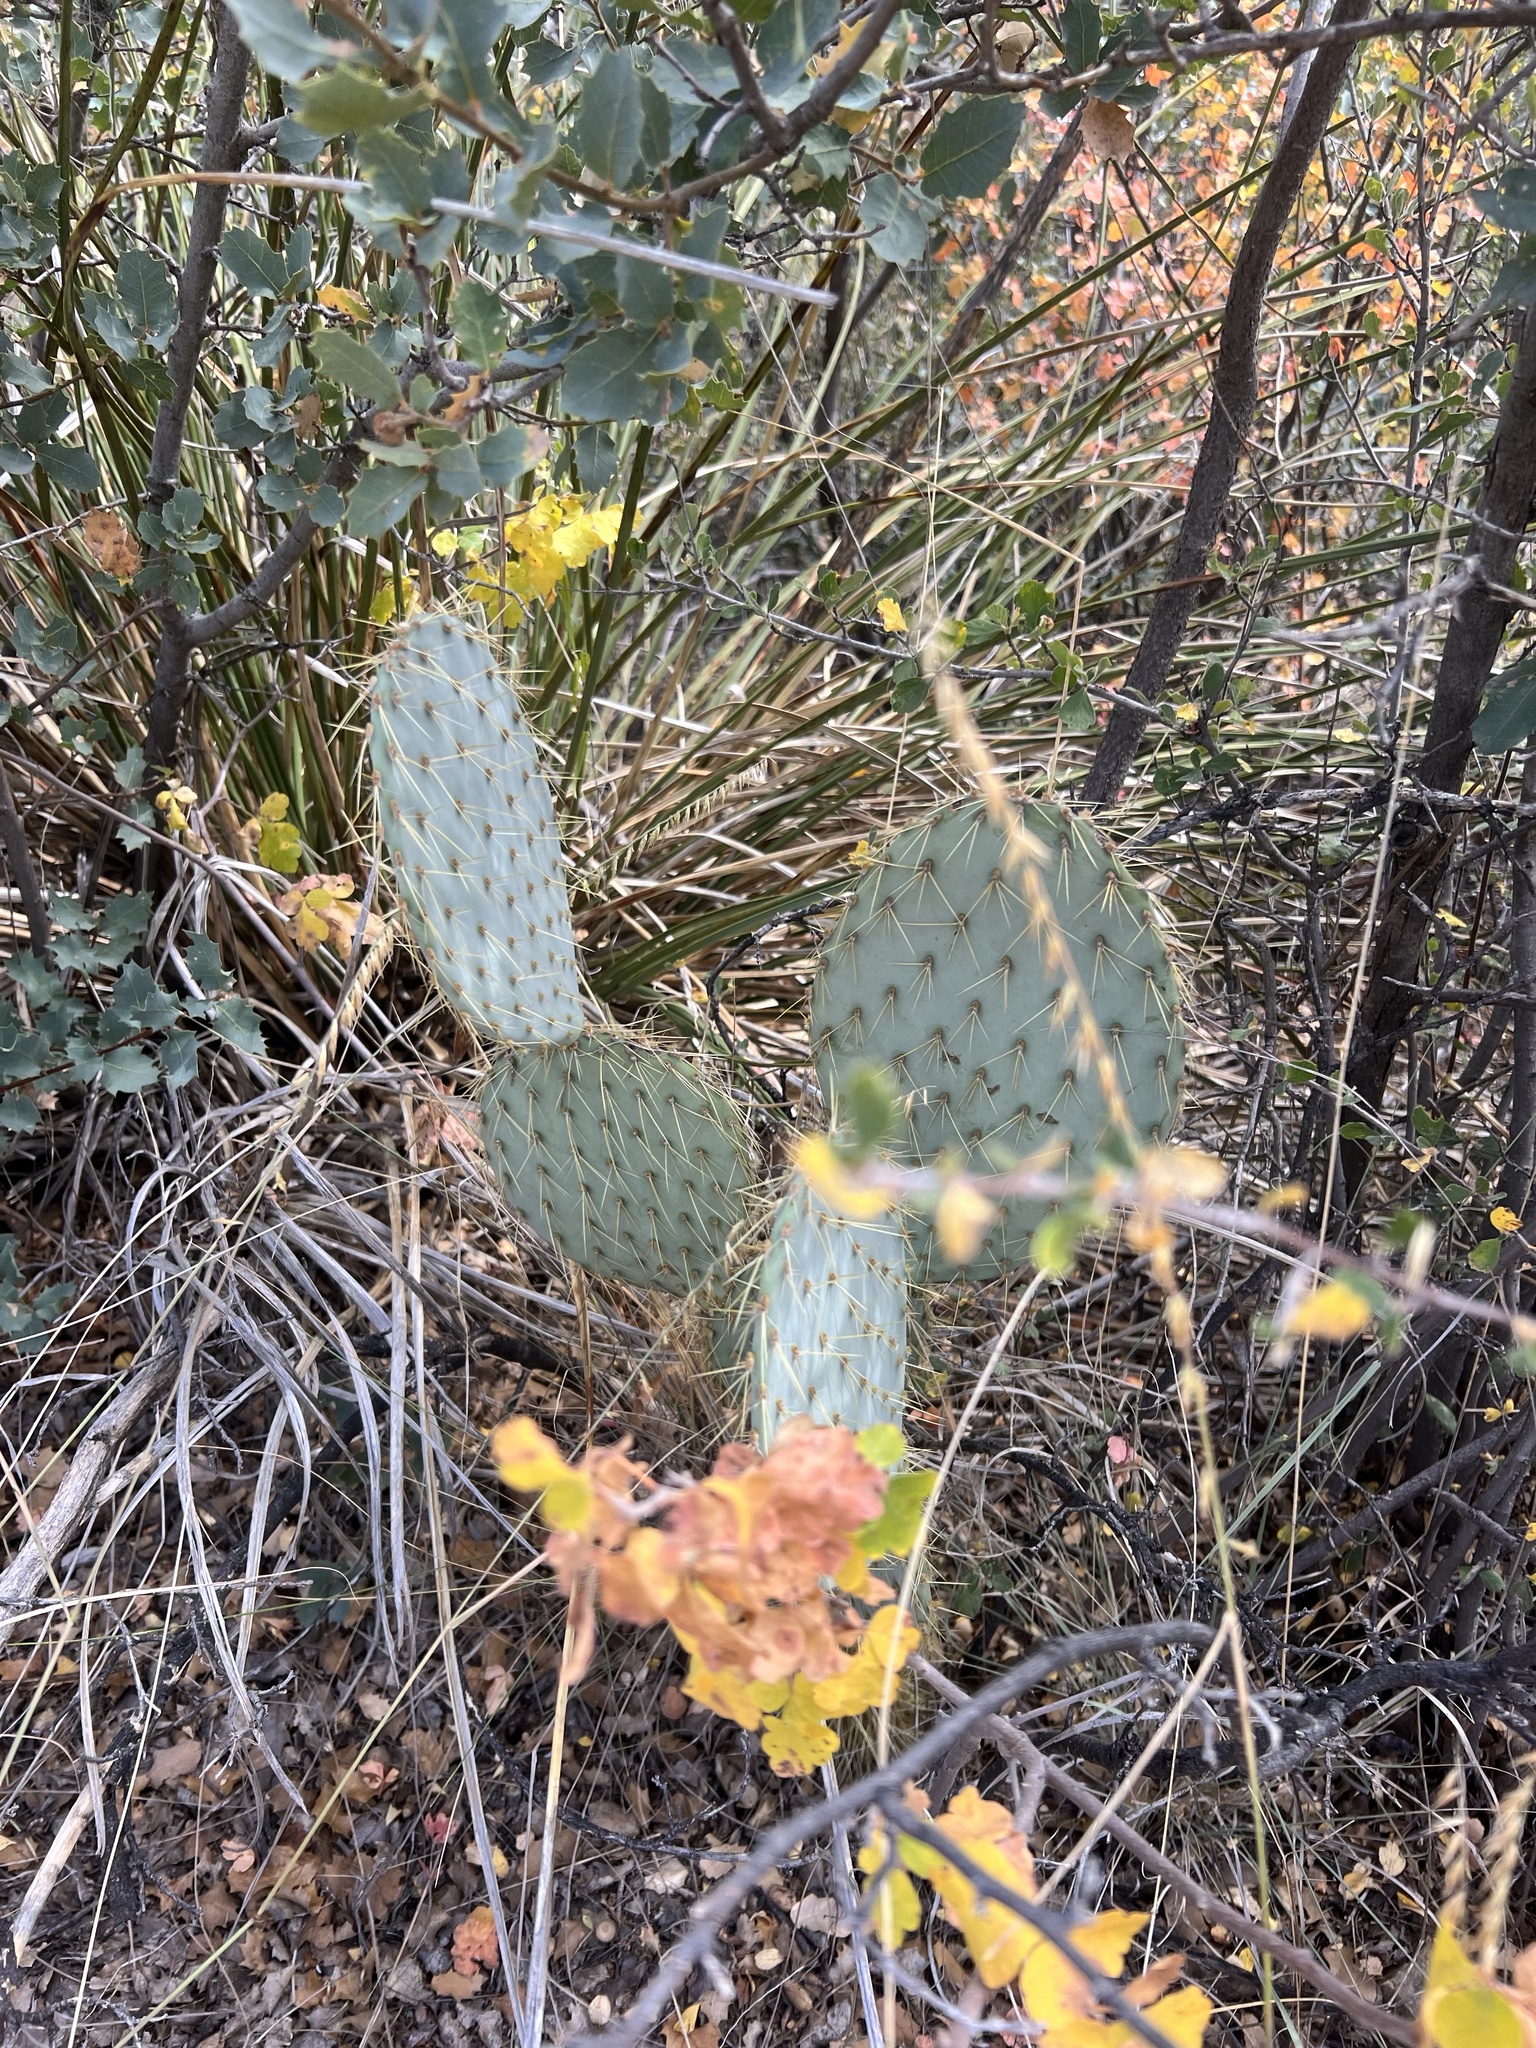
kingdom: Plantae
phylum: Tracheophyta
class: Magnoliopsida
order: Caryophyllales
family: Cactaceae
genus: Opuntia
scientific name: Opuntia chlorotica
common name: Dollar-joint prickly-pear
